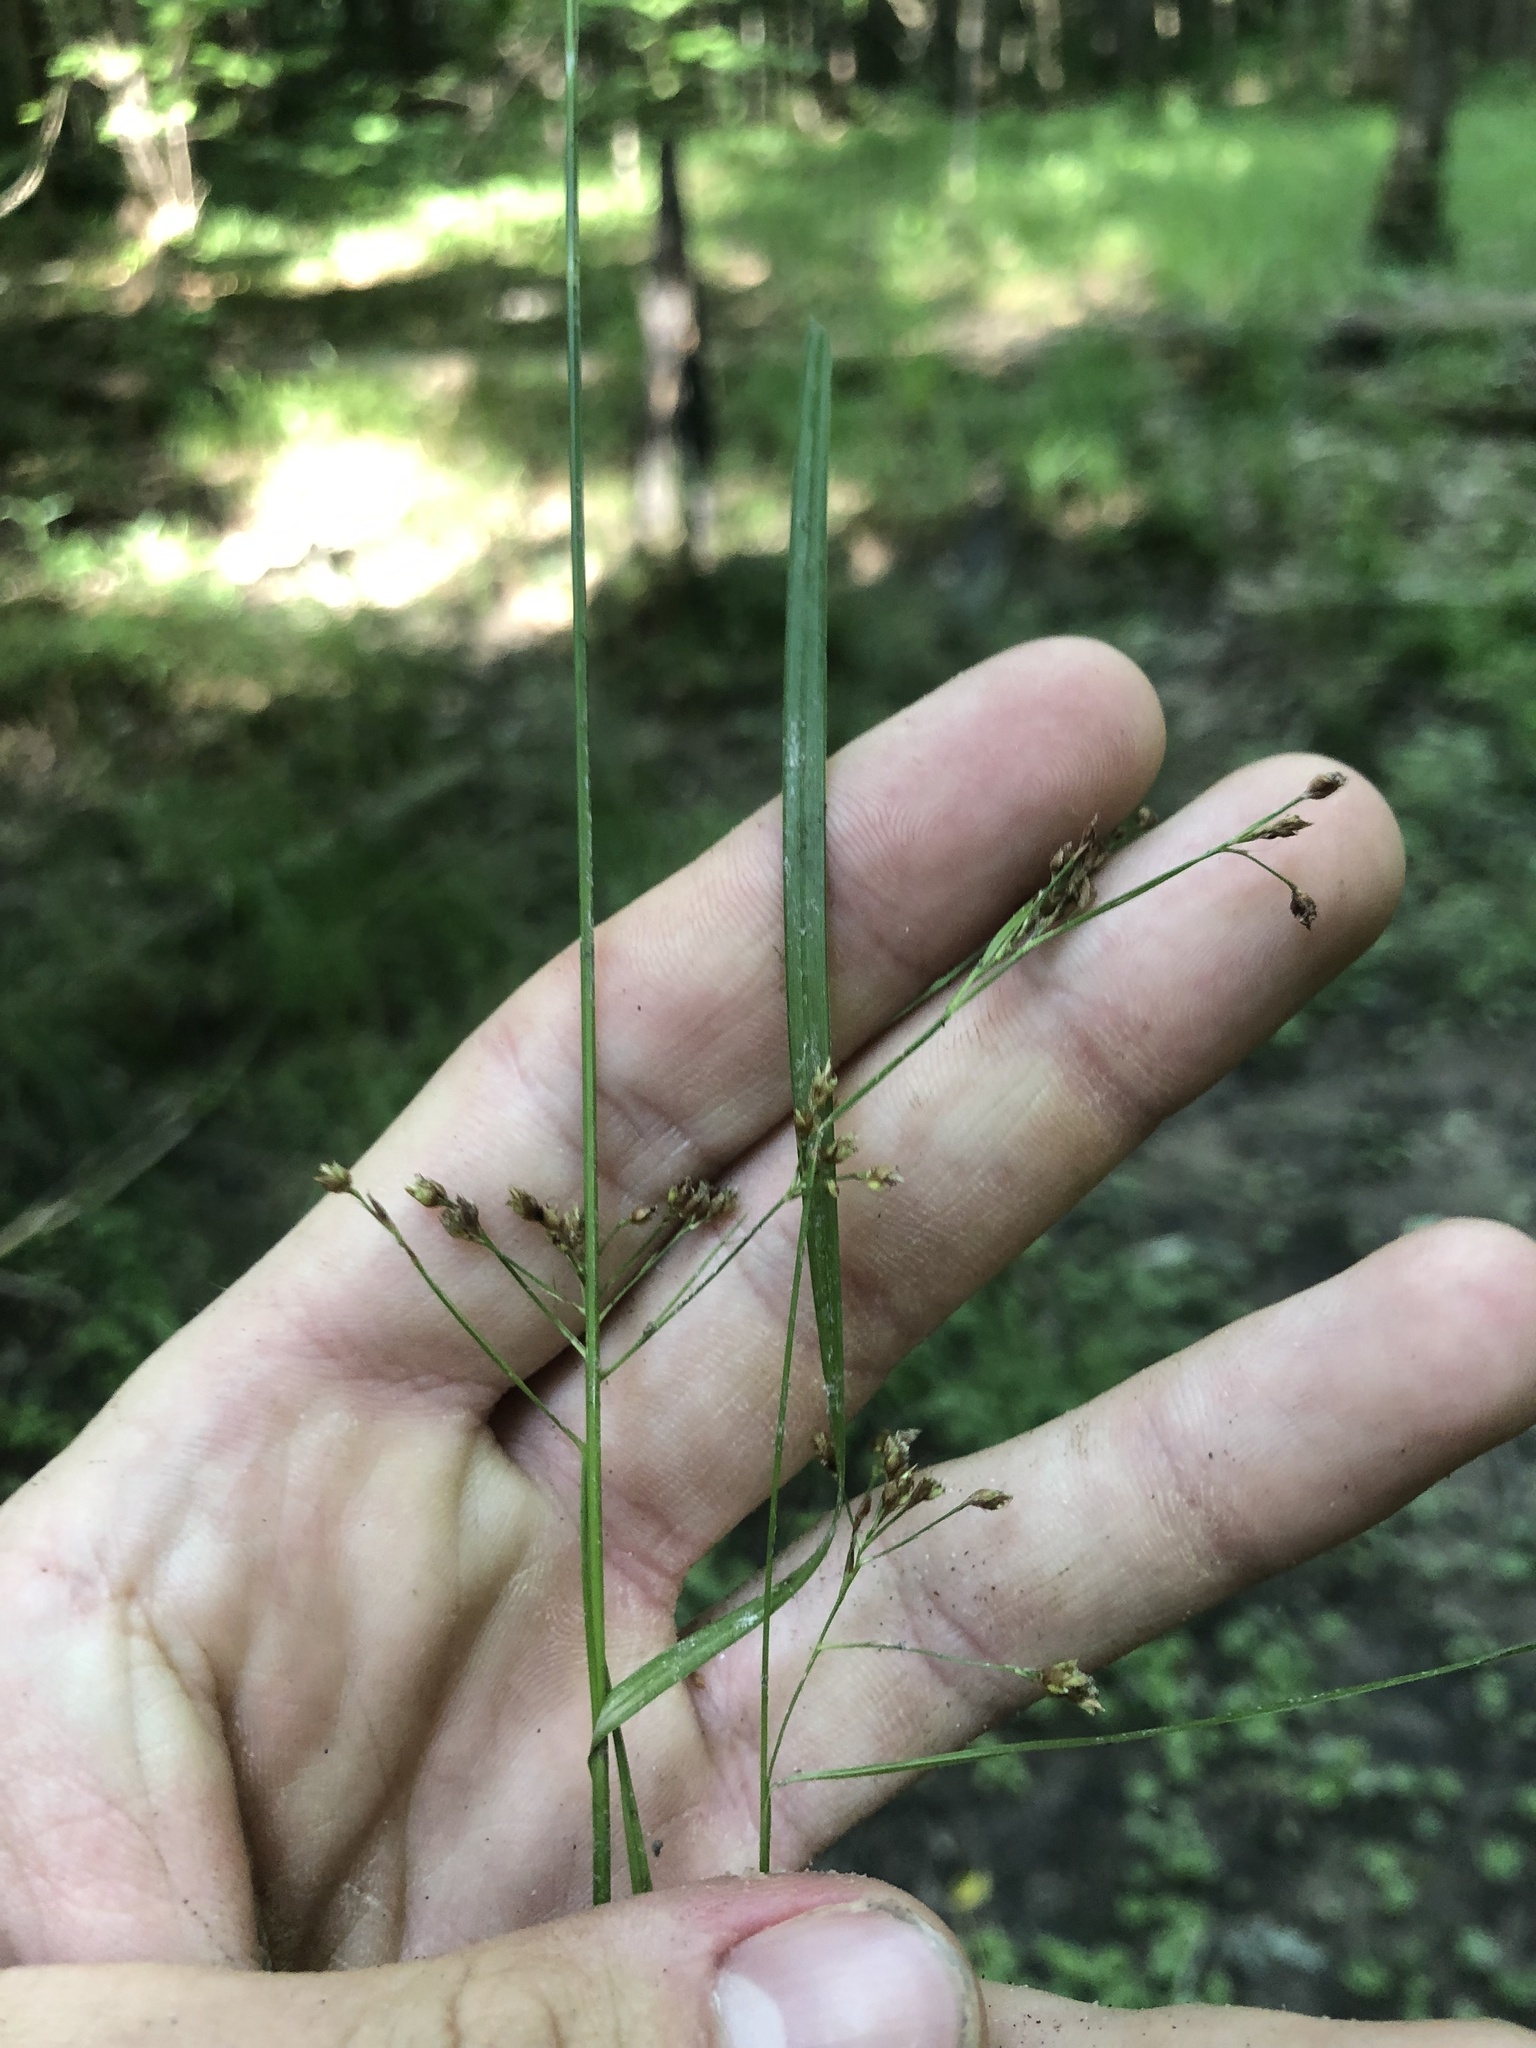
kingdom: Plantae
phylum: Tracheophyta
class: Liliopsida
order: Poales
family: Cyperaceae
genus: Rhynchospora
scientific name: Rhynchospora mixta
